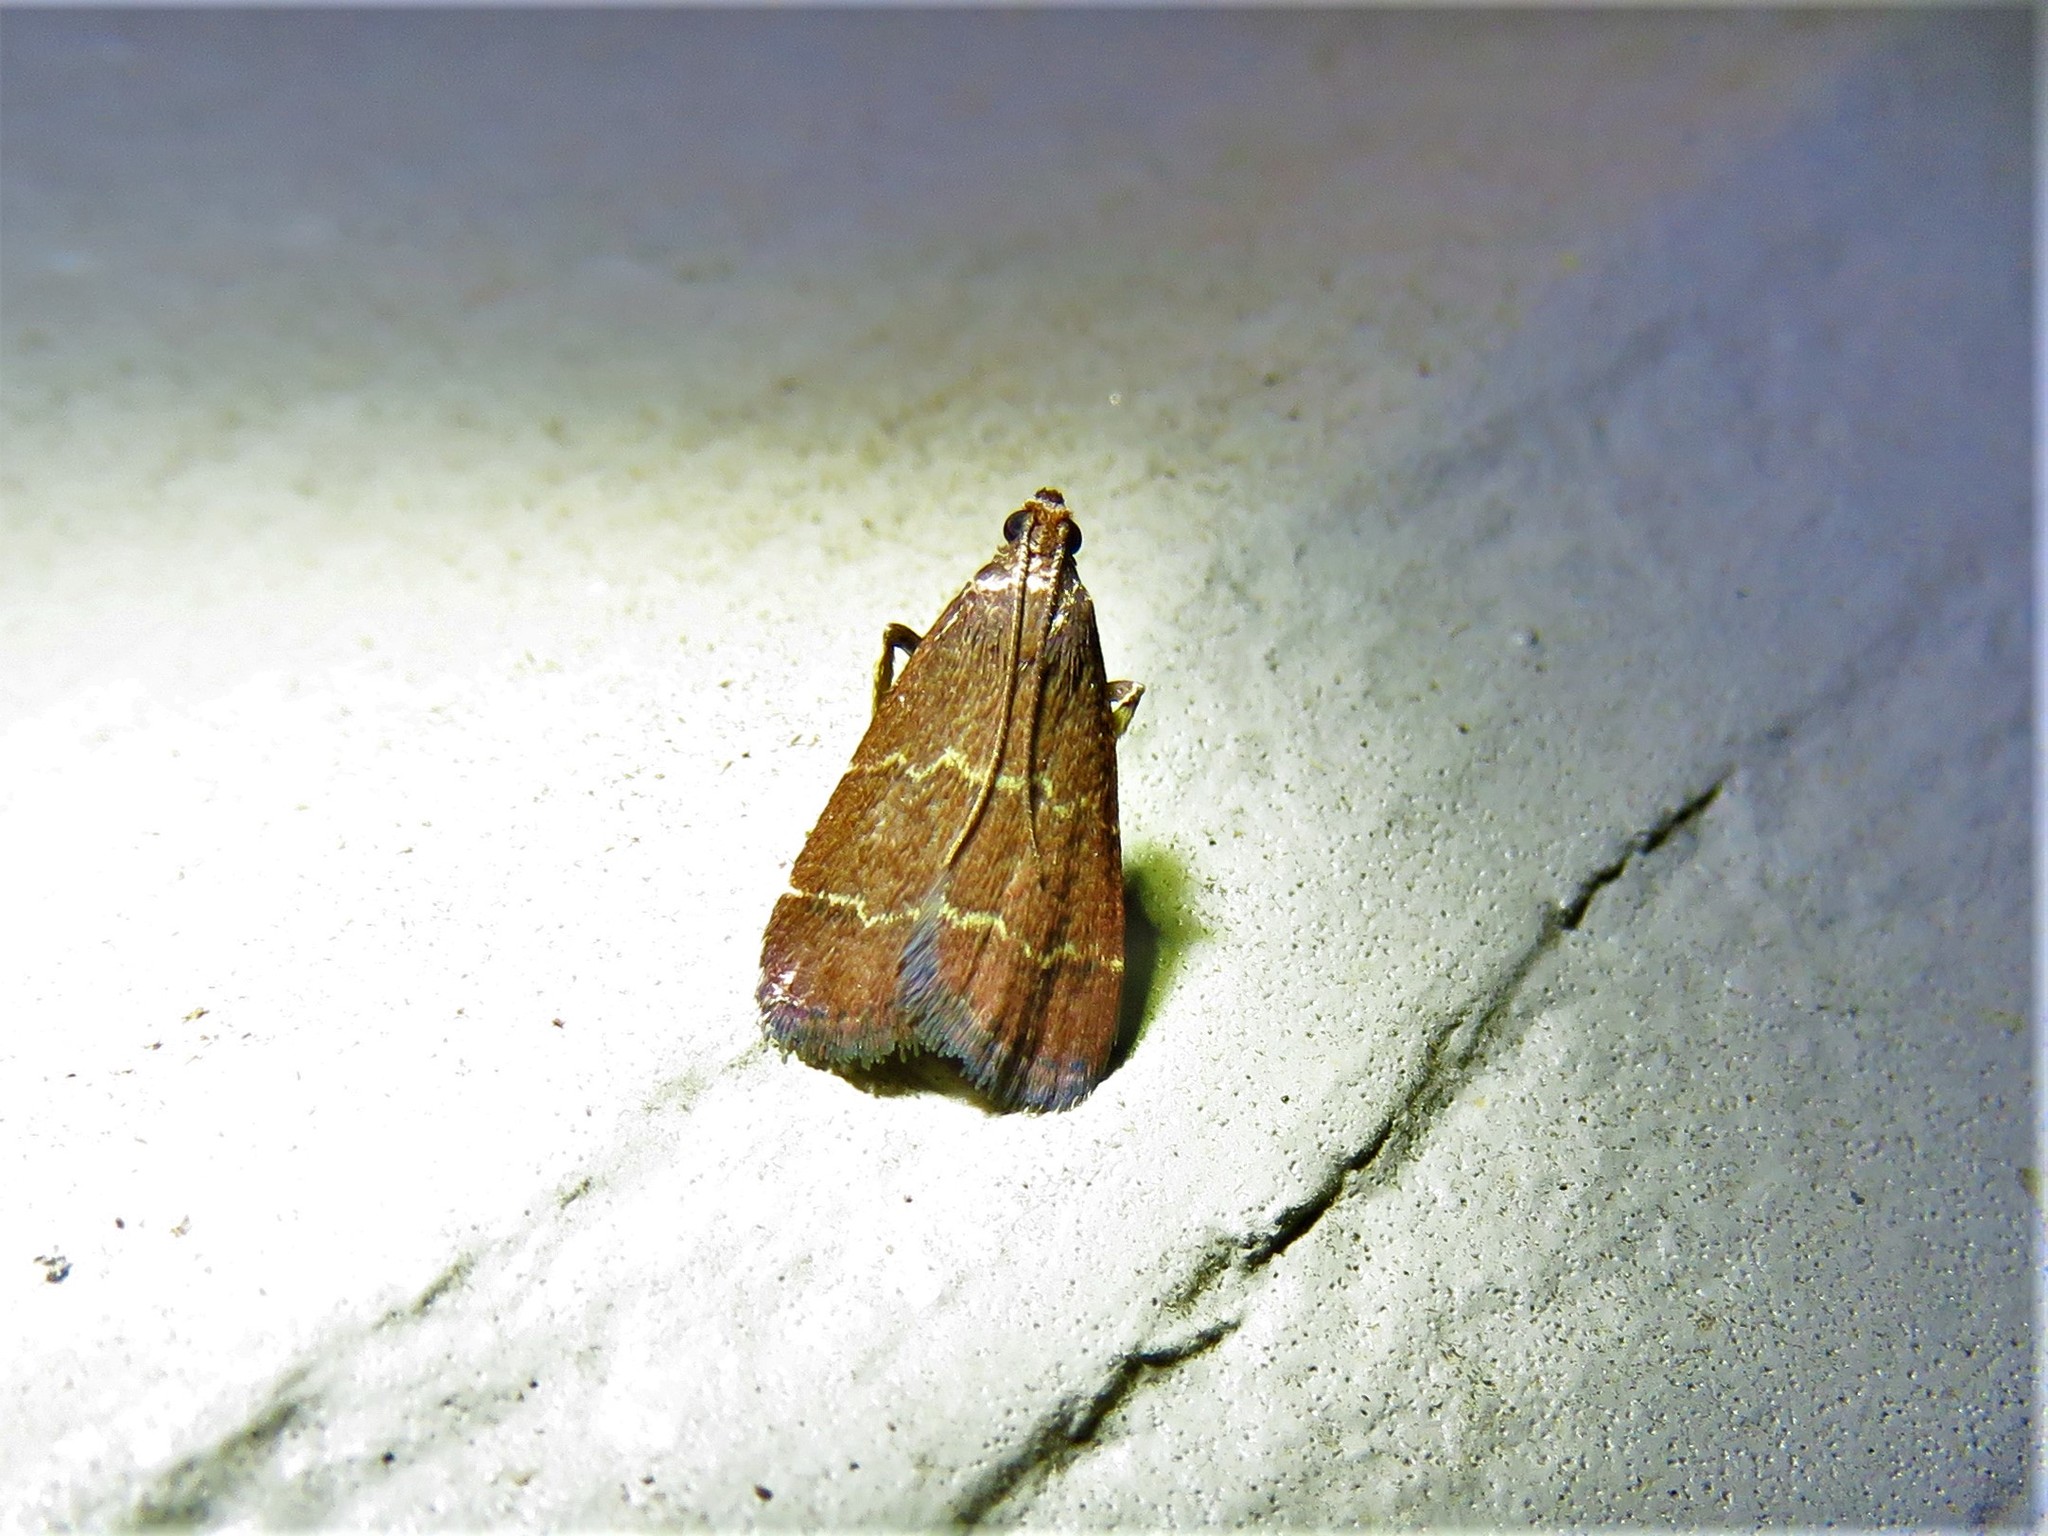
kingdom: Animalia
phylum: Arthropoda
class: Insecta
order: Lepidoptera
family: Pyralidae
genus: Arta
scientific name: Arta
